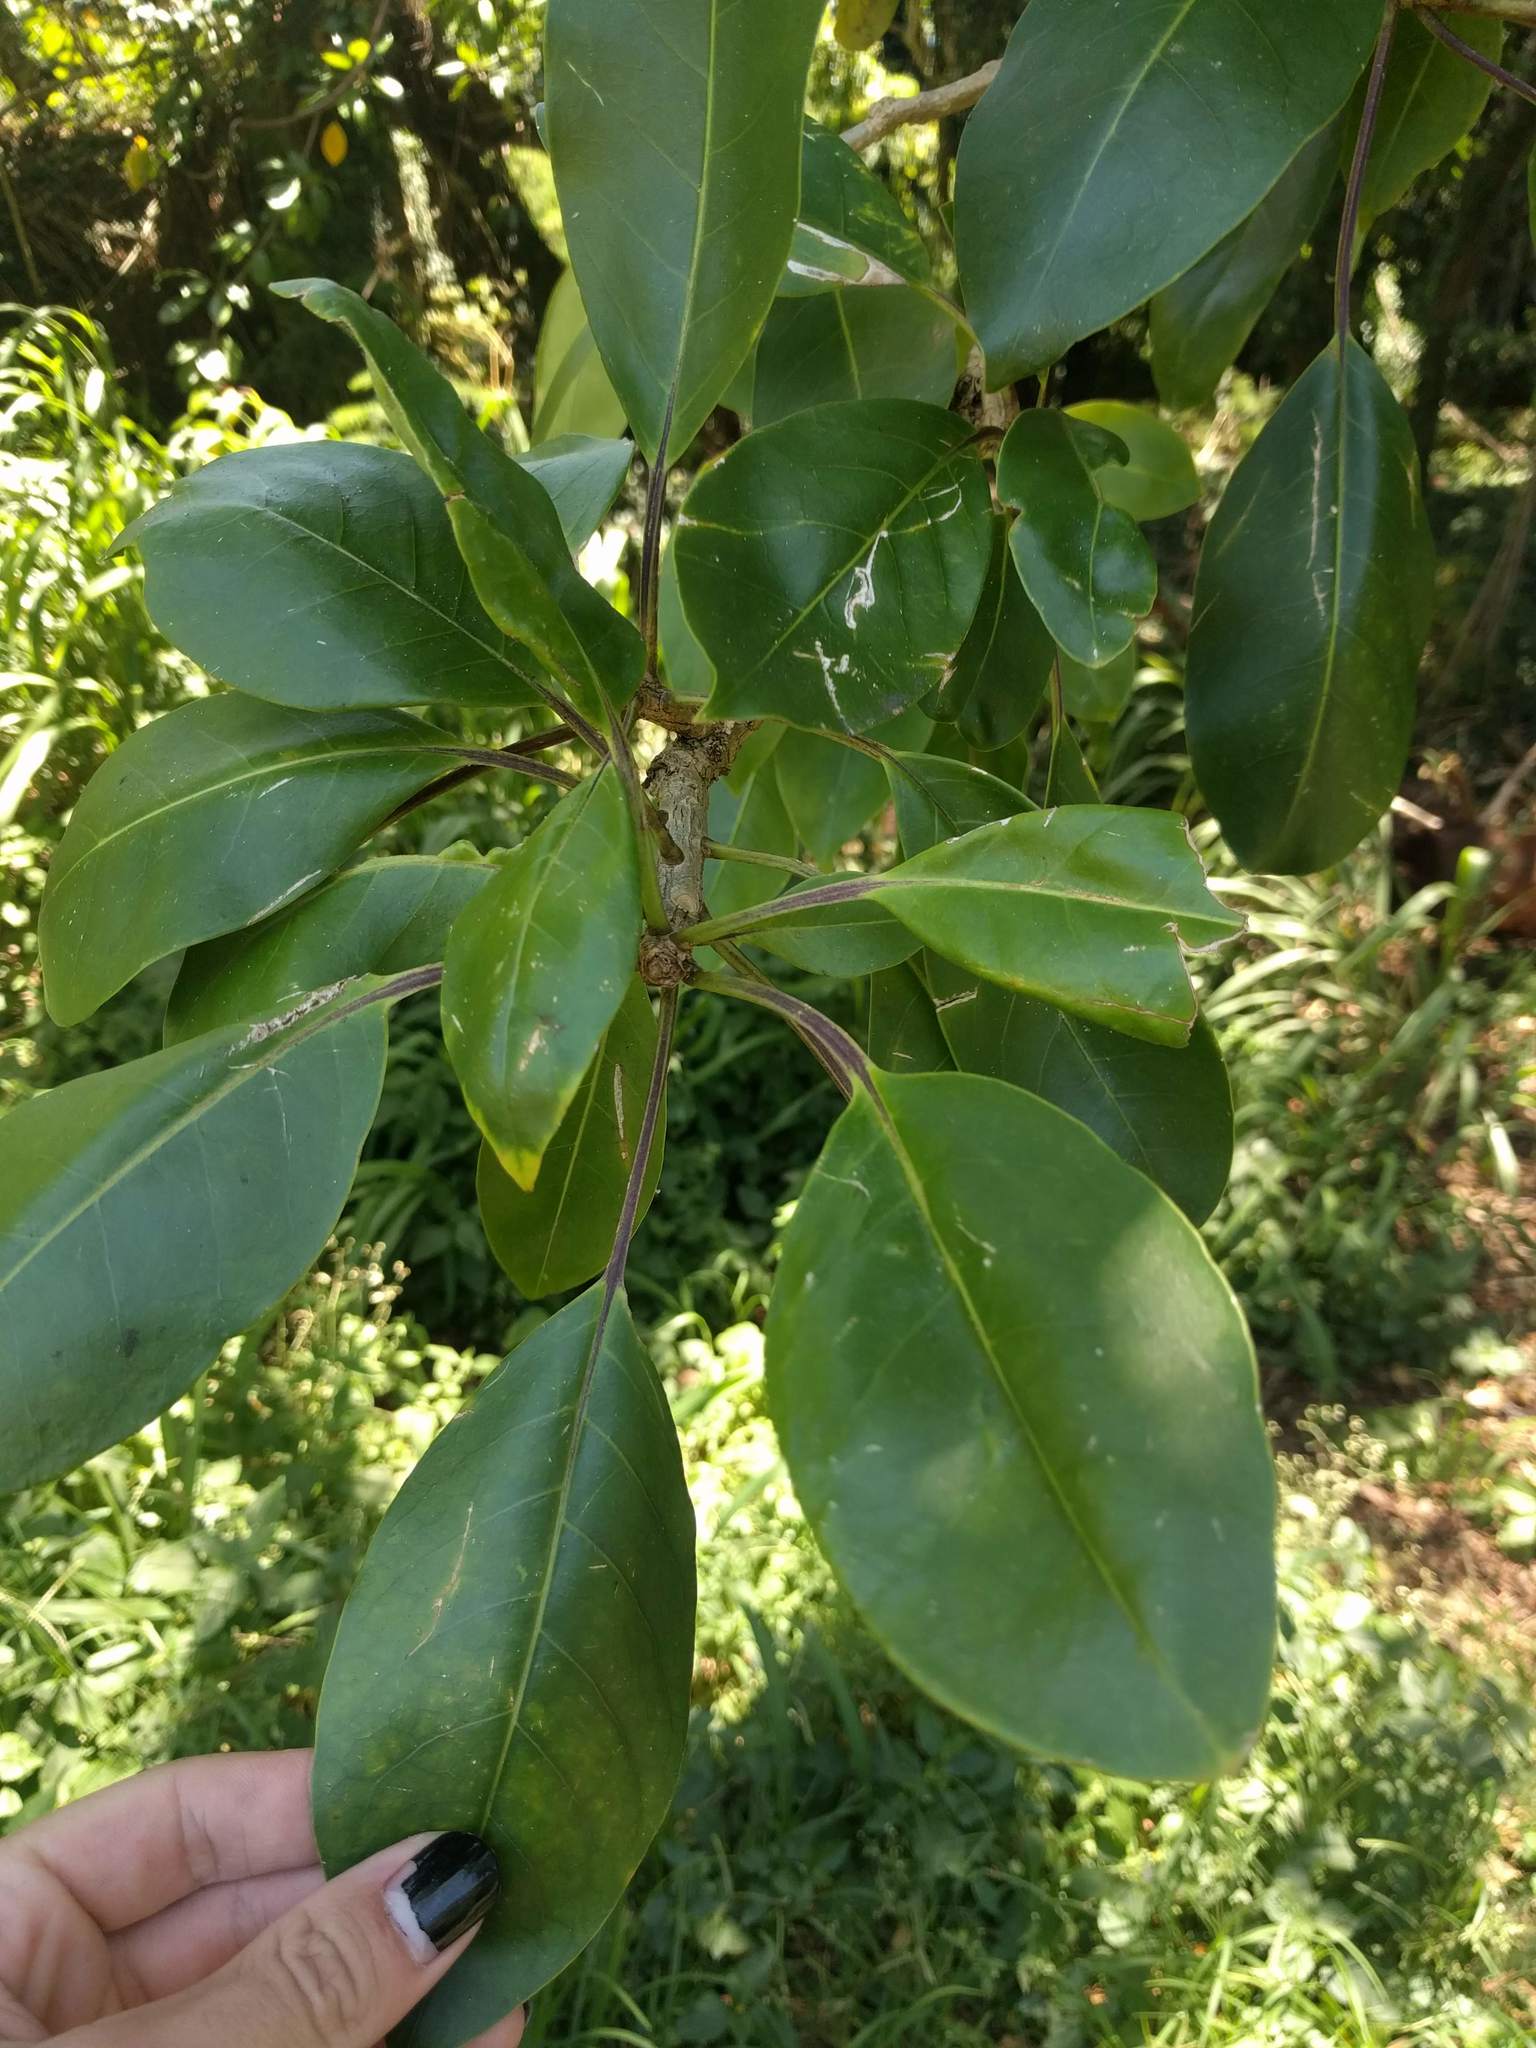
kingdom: Plantae
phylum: Tracheophyta
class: Magnoliopsida
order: Solanales
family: Solanaceae
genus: Solandra
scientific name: Solandra maxima
